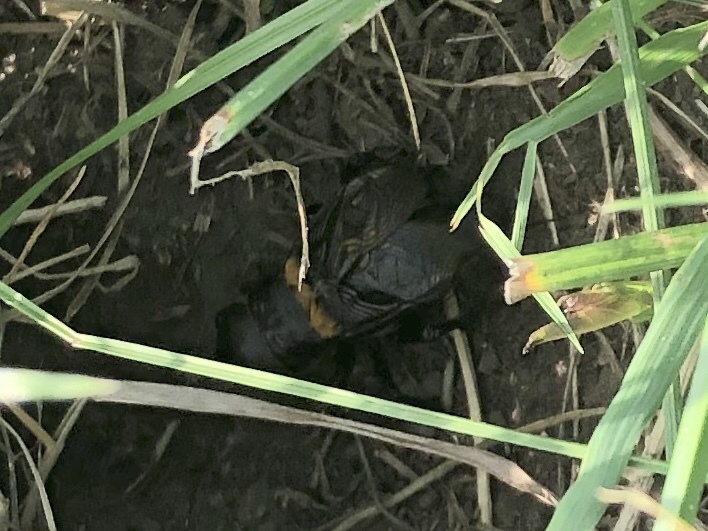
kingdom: Animalia
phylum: Arthropoda
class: Insecta
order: Orthoptera
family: Gryllidae
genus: Gryllus
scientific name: Gryllus campestris
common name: Field cricket
